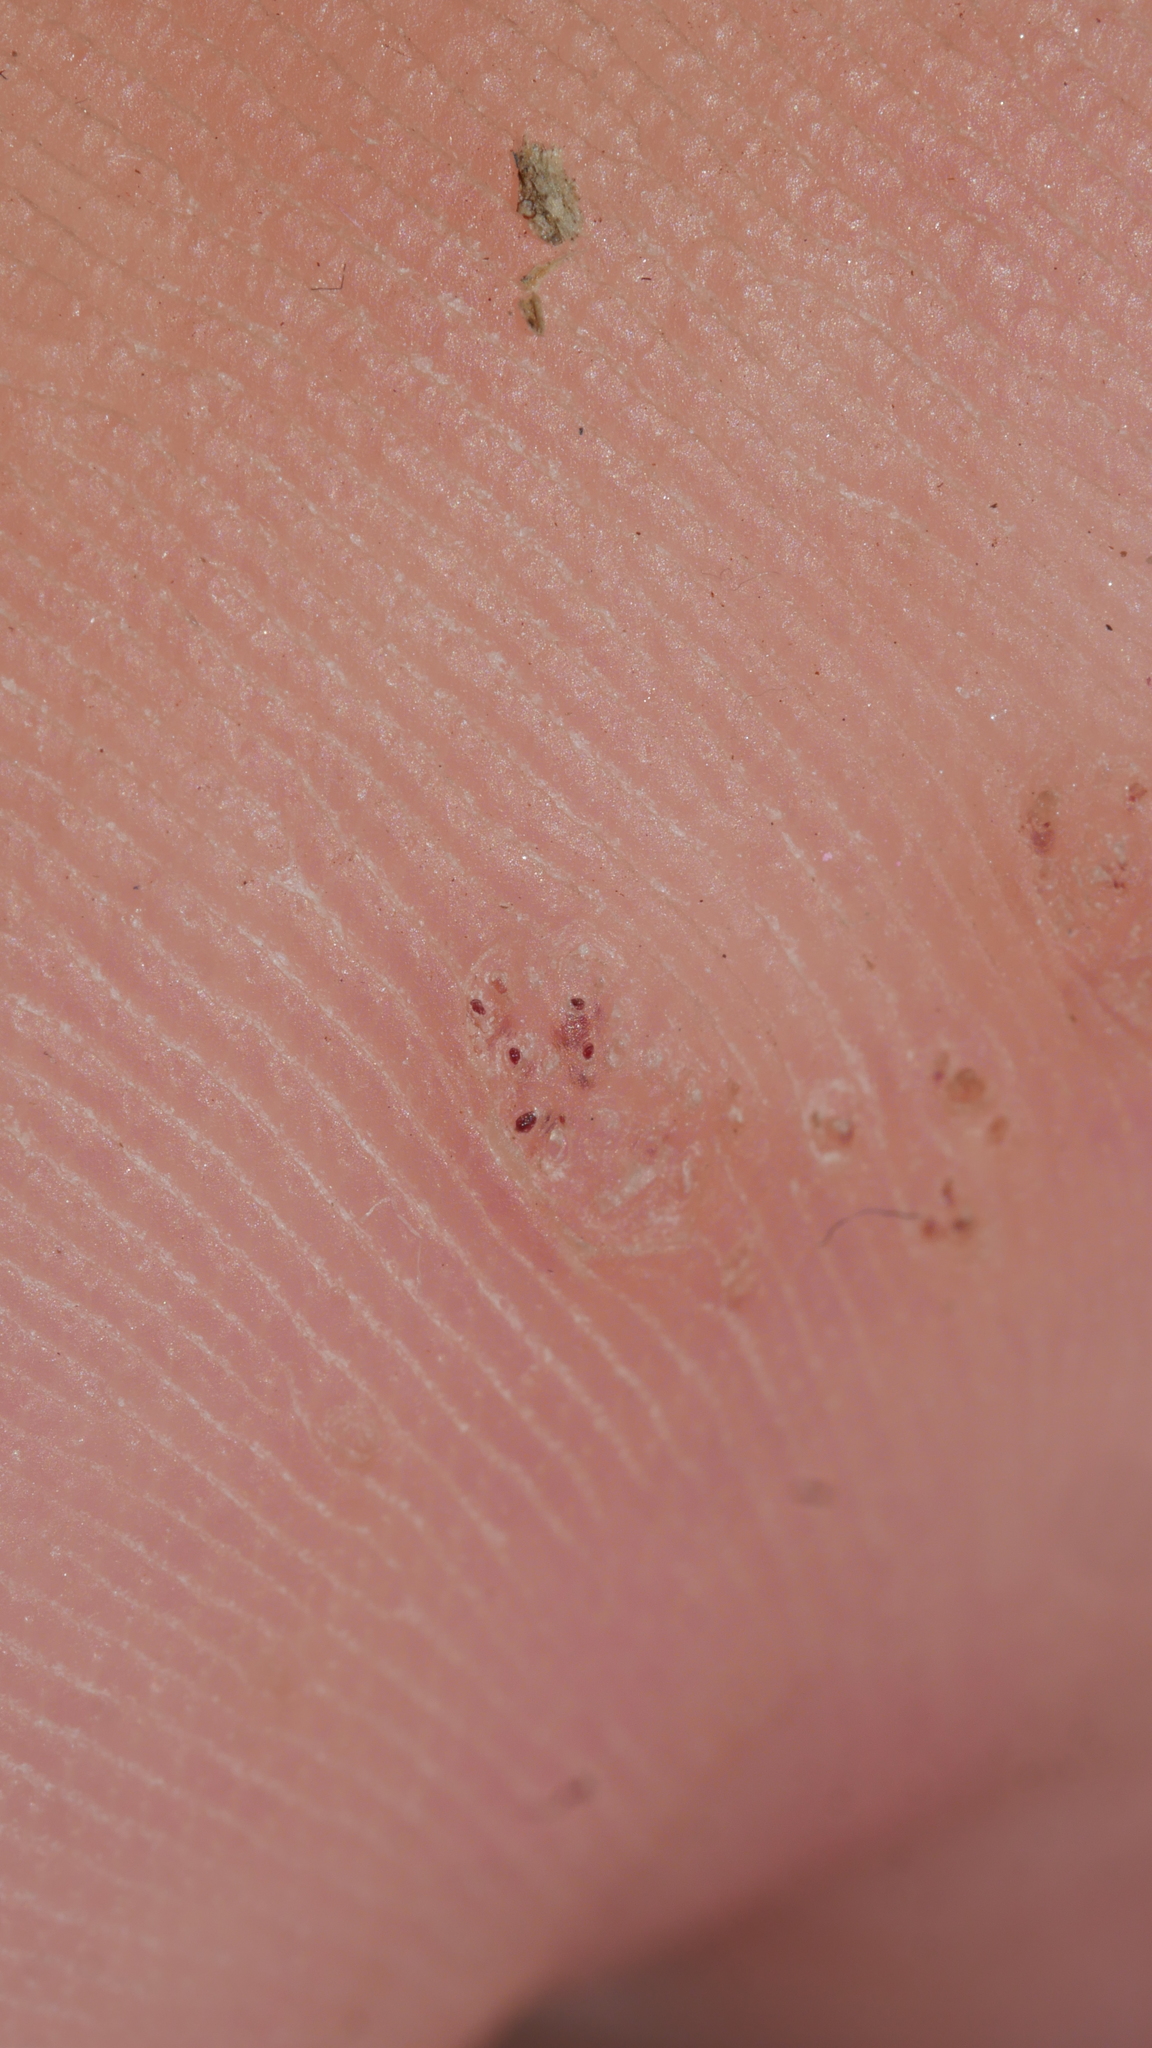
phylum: Cossaviricota
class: Papovaviricetes
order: Zurhausenvirales
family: Papillomaviridae
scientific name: Papillomaviridae
